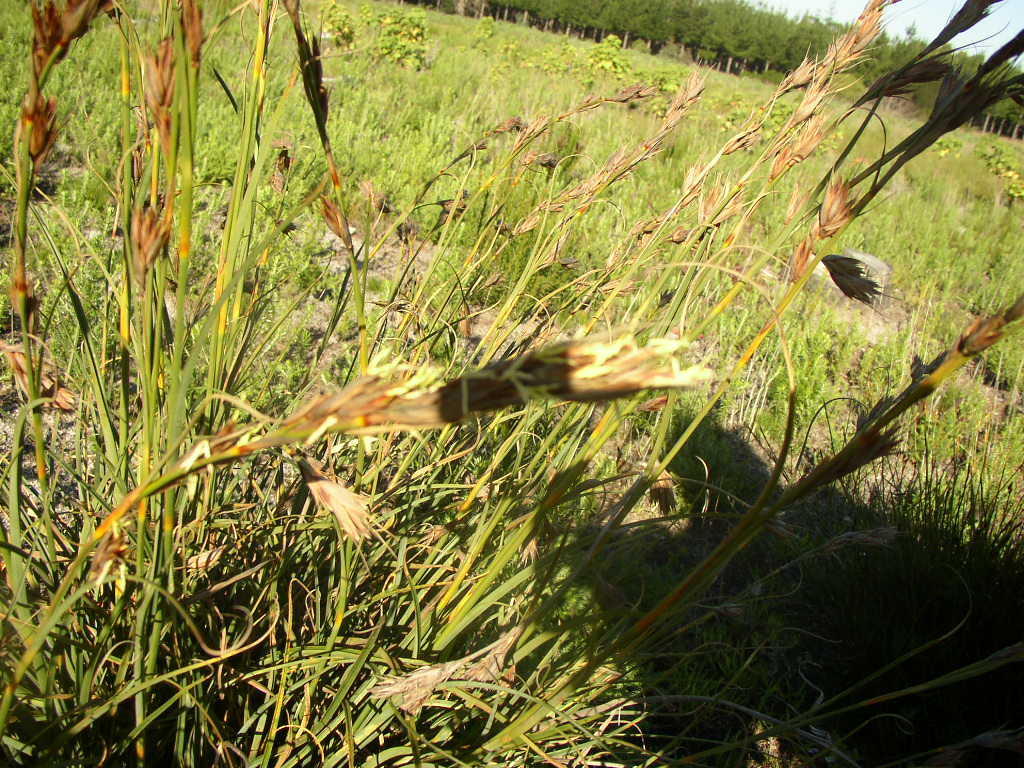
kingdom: Plantae
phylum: Tracheophyta
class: Liliopsida
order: Poales
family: Cyperaceae
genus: Tetraria
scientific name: Tetraria eximia
